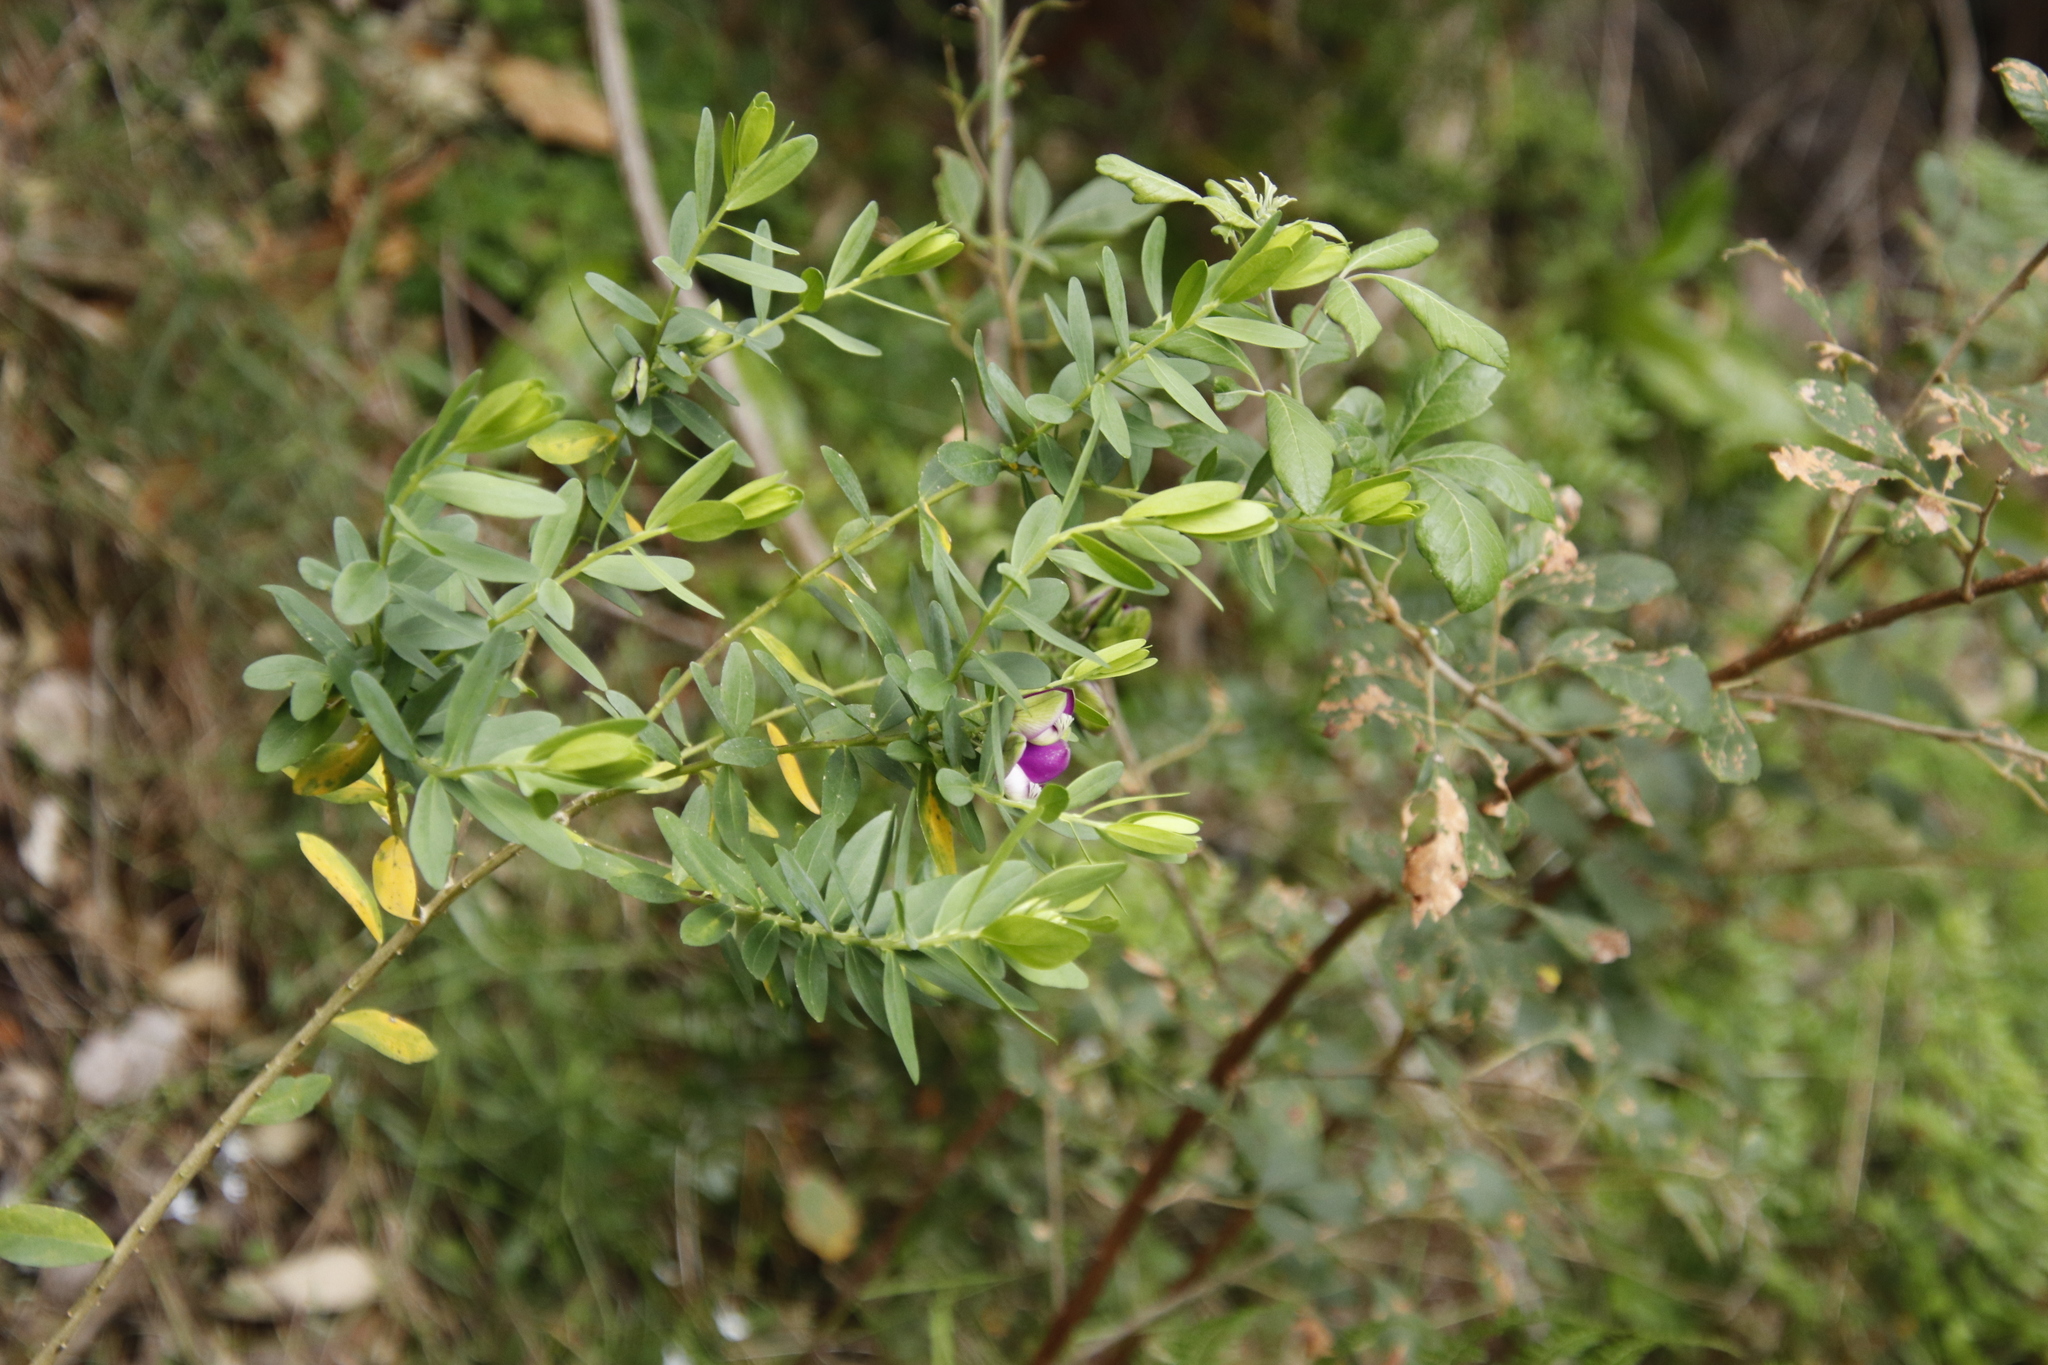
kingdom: Plantae
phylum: Tracheophyta
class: Magnoliopsida
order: Fabales
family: Polygalaceae
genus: Polygala
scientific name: Polygala myrtifolia
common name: Myrtle-leaf milkwort
